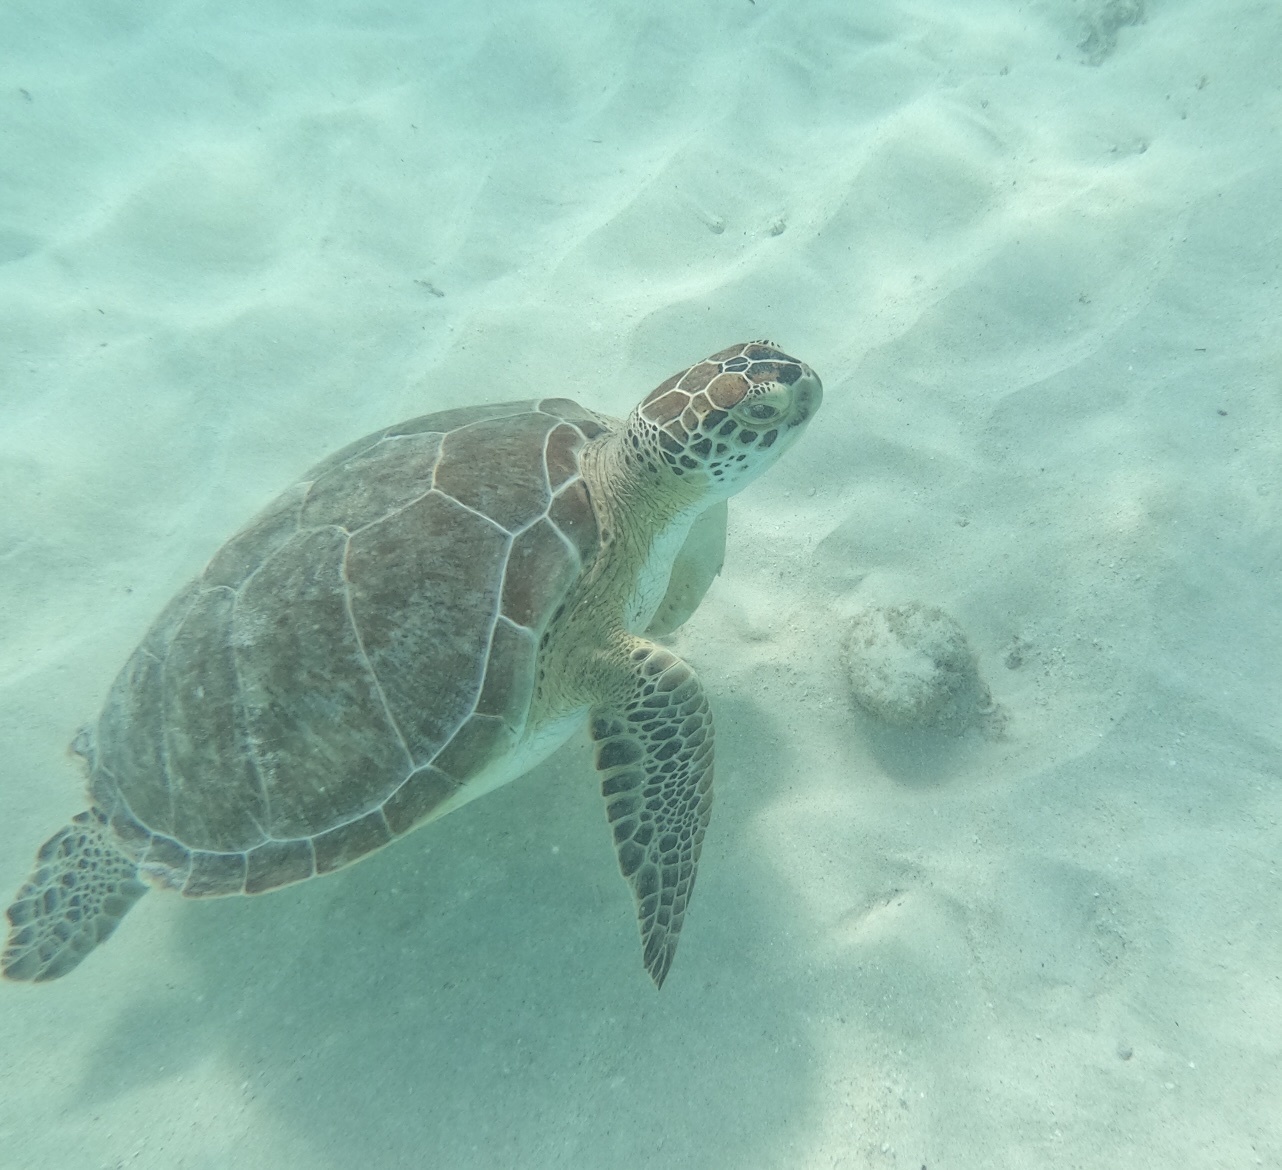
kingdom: Animalia
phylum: Chordata
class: Testudines
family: Cheloniidae
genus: Chelonia
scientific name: Chelonia mydas
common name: Green turtle
